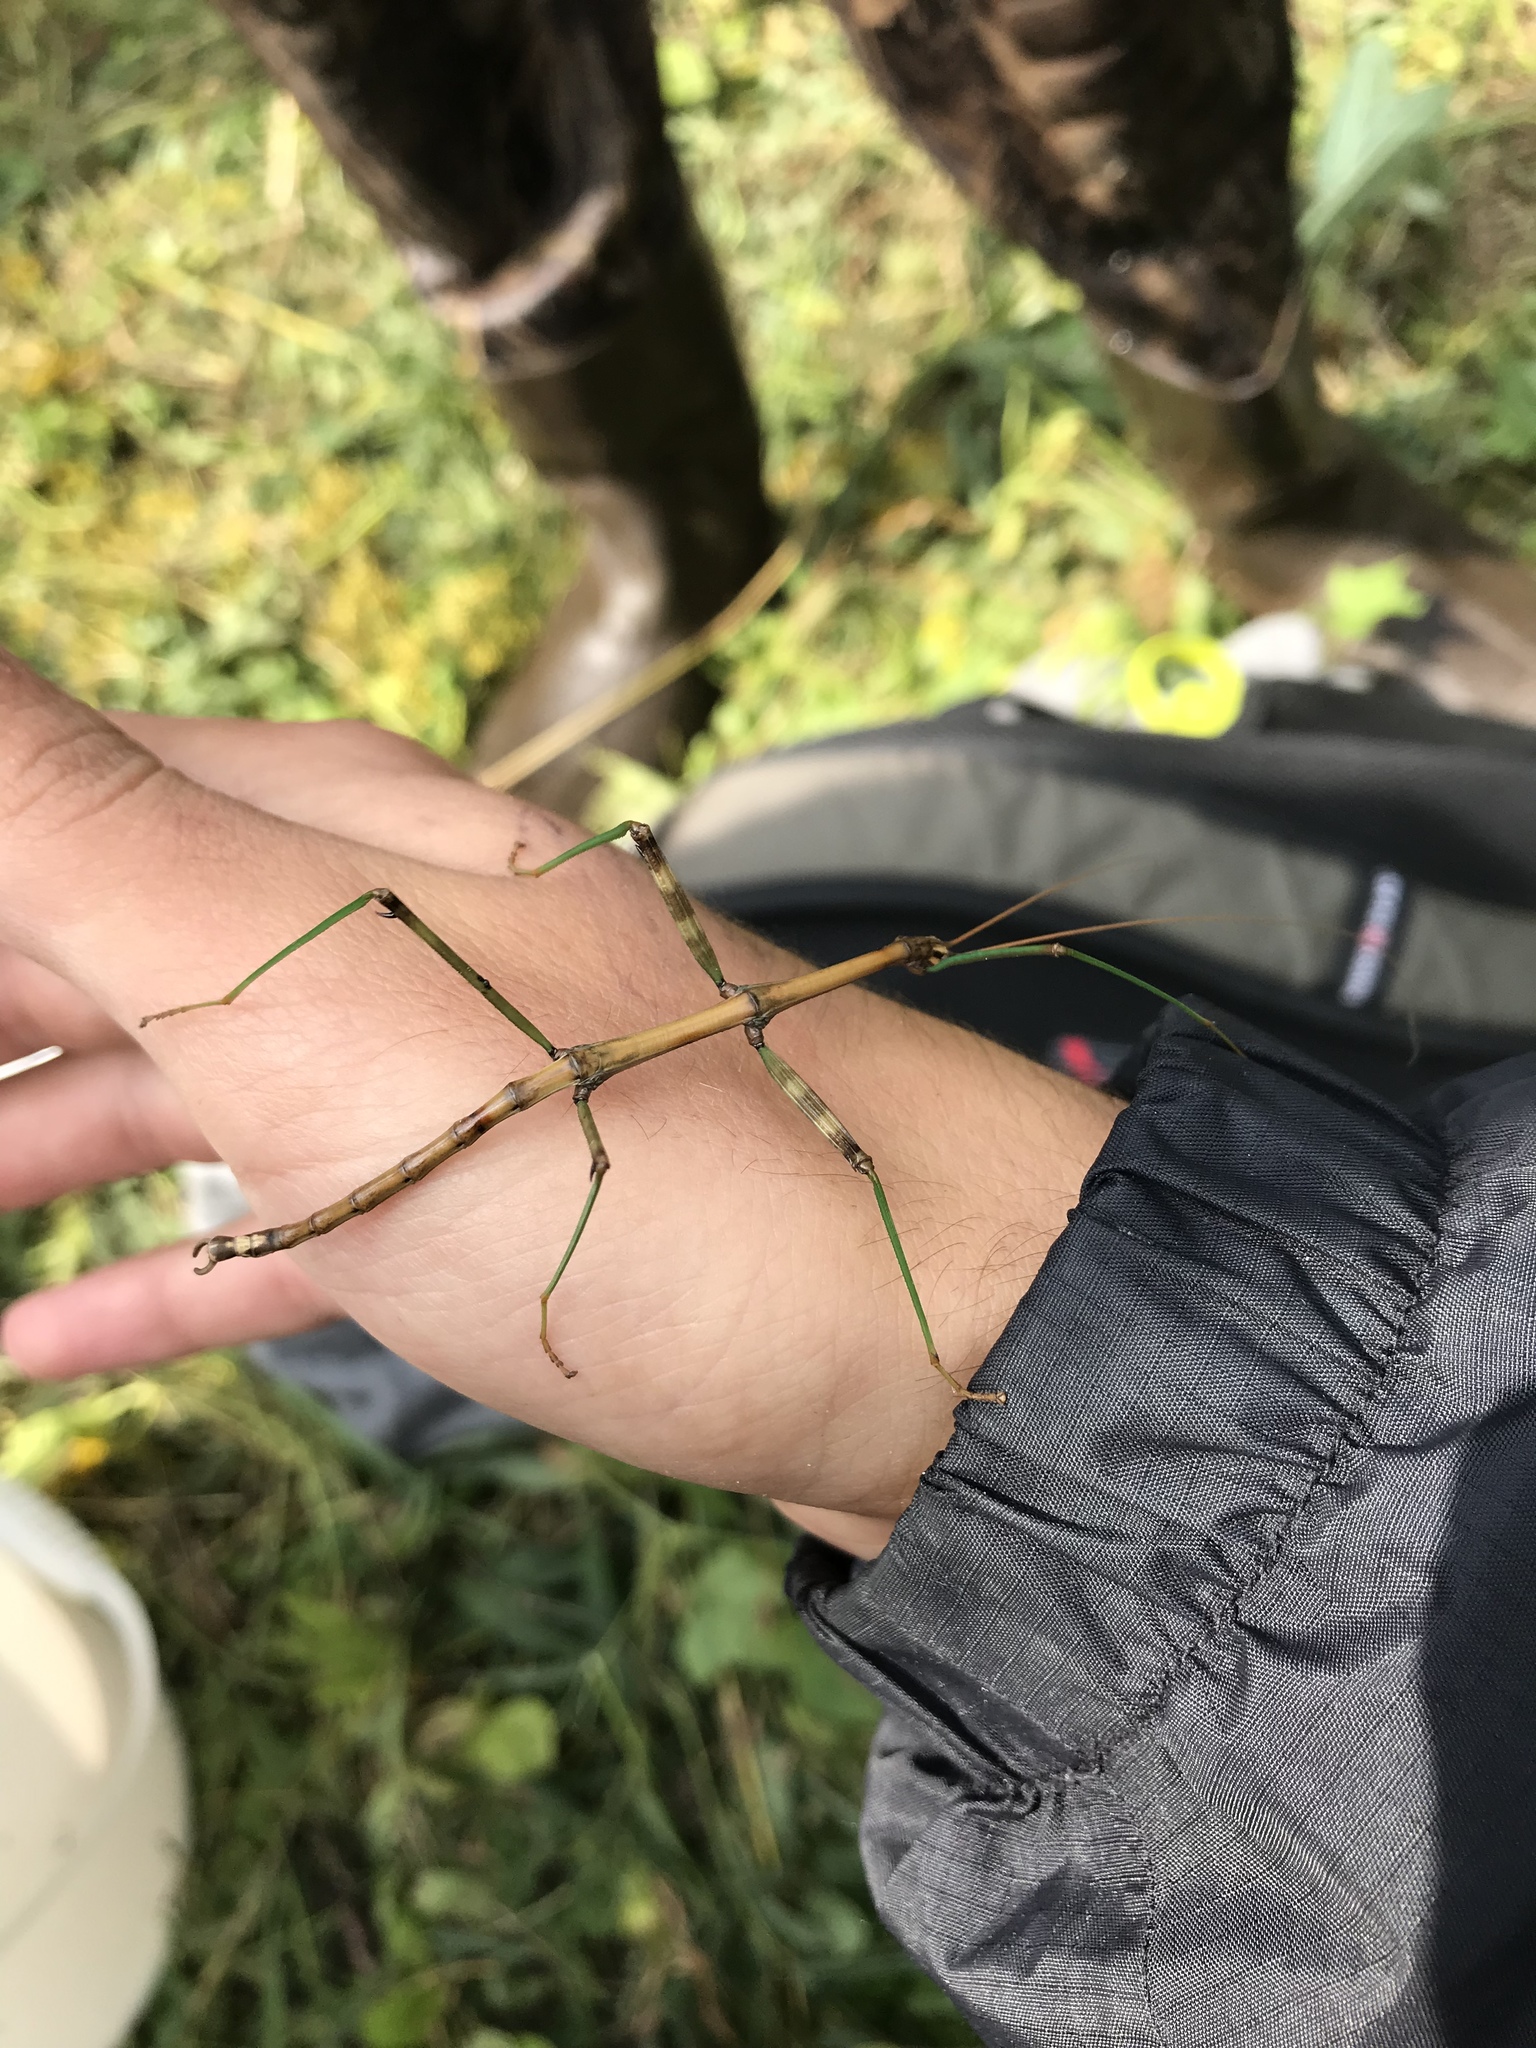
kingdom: Animalia
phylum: Arthropoda
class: Insecta
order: Phasmida
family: Diapheromeridae
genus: Diapheromera
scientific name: Diapheromera femorata
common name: Common american walkingstick
